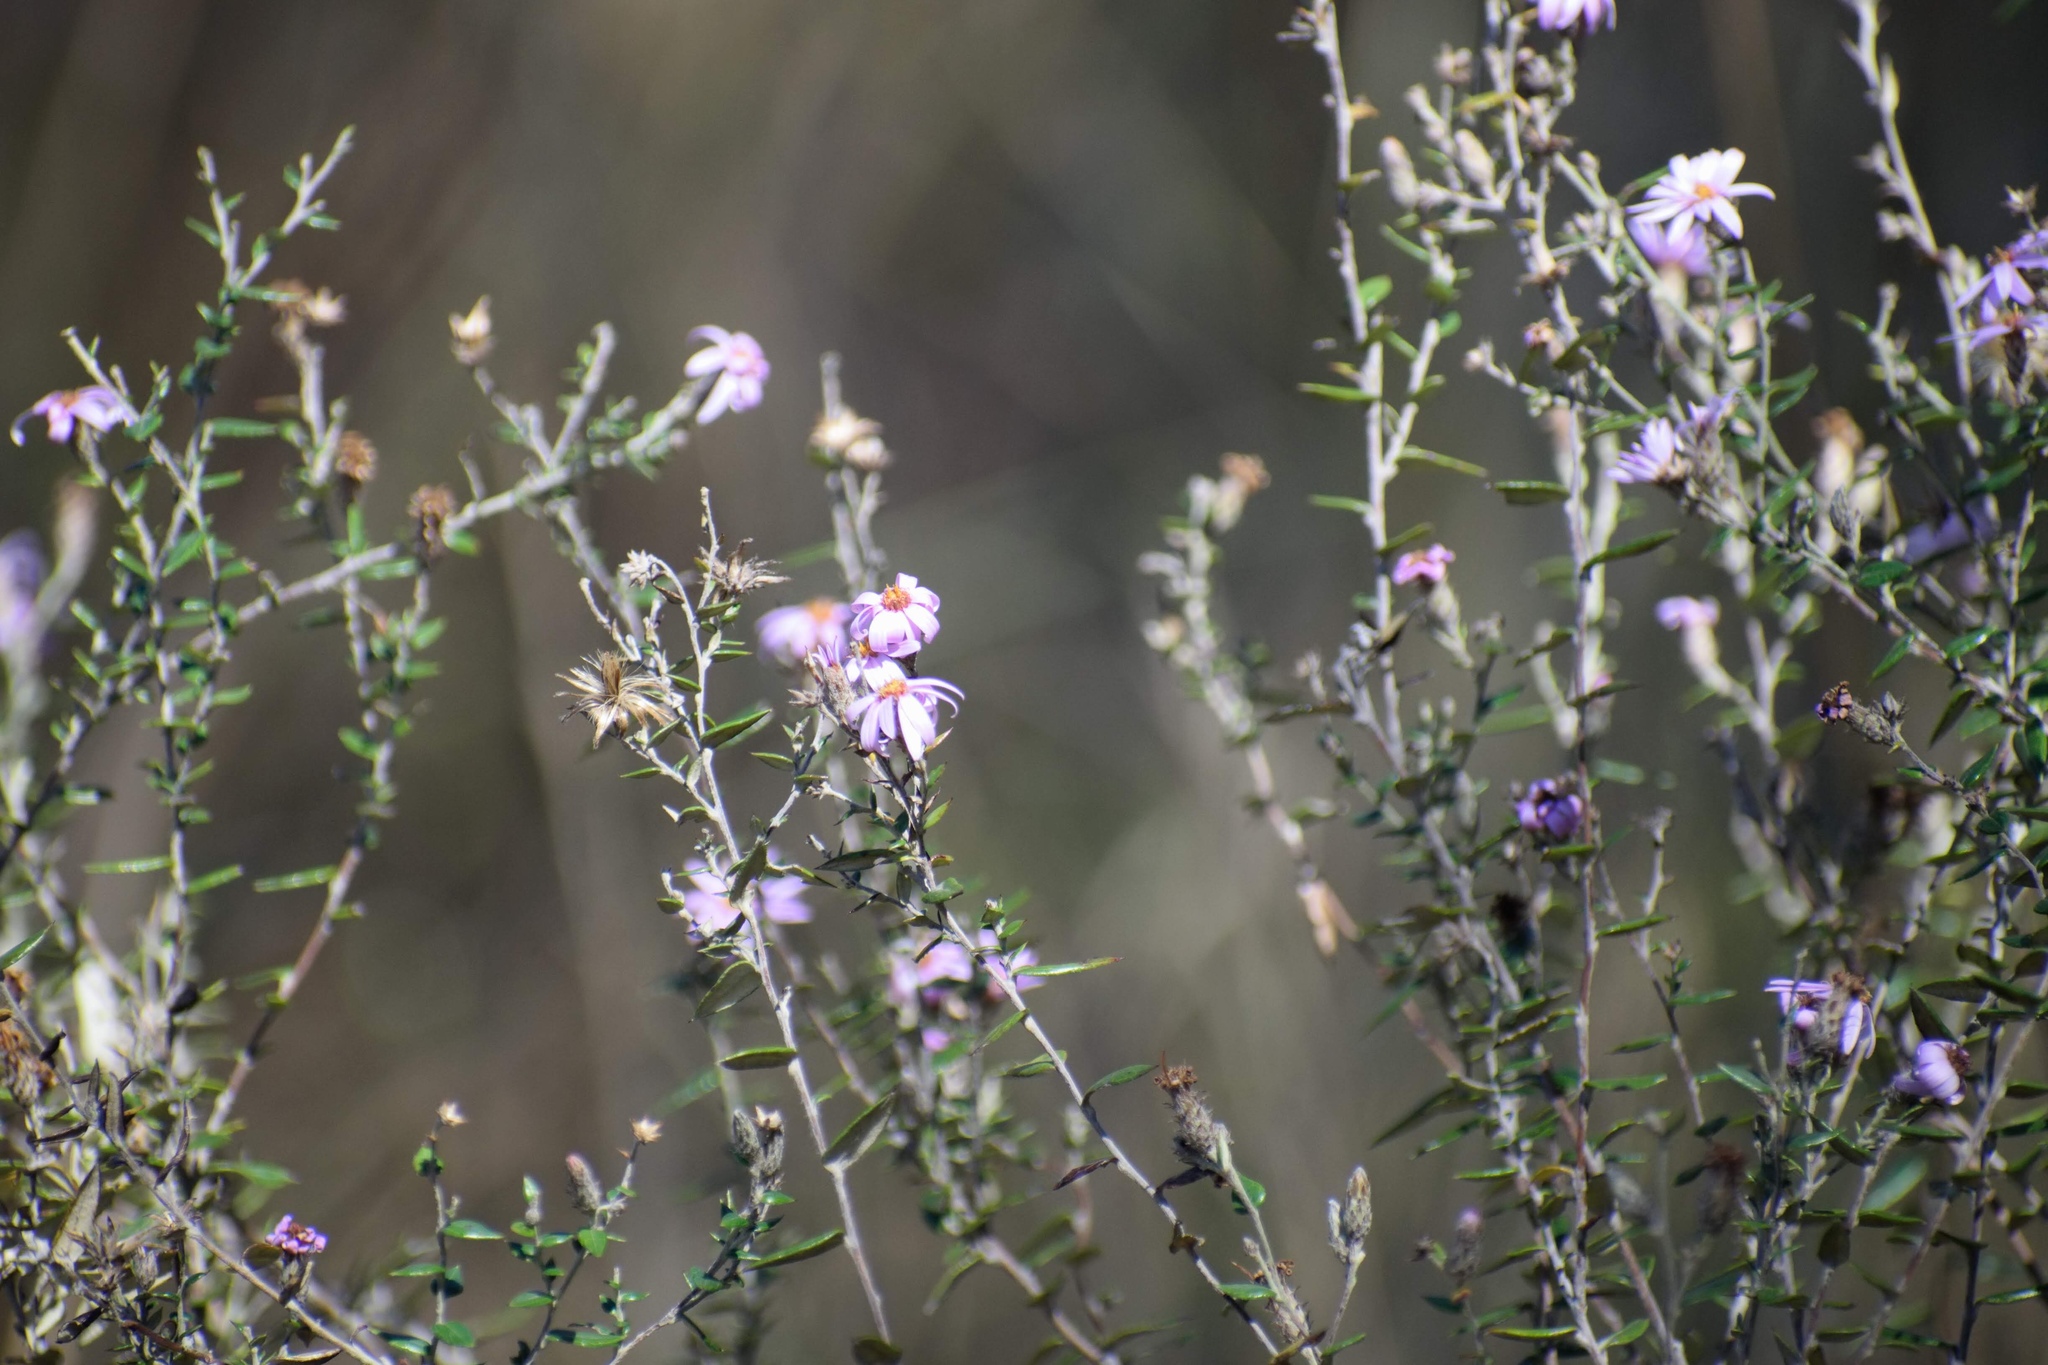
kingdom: Plantae
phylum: Tracheophyta
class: Magnoliopsida
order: Asterales
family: Asteraceae
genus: Athrixia
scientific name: Athrixia phylicoides
